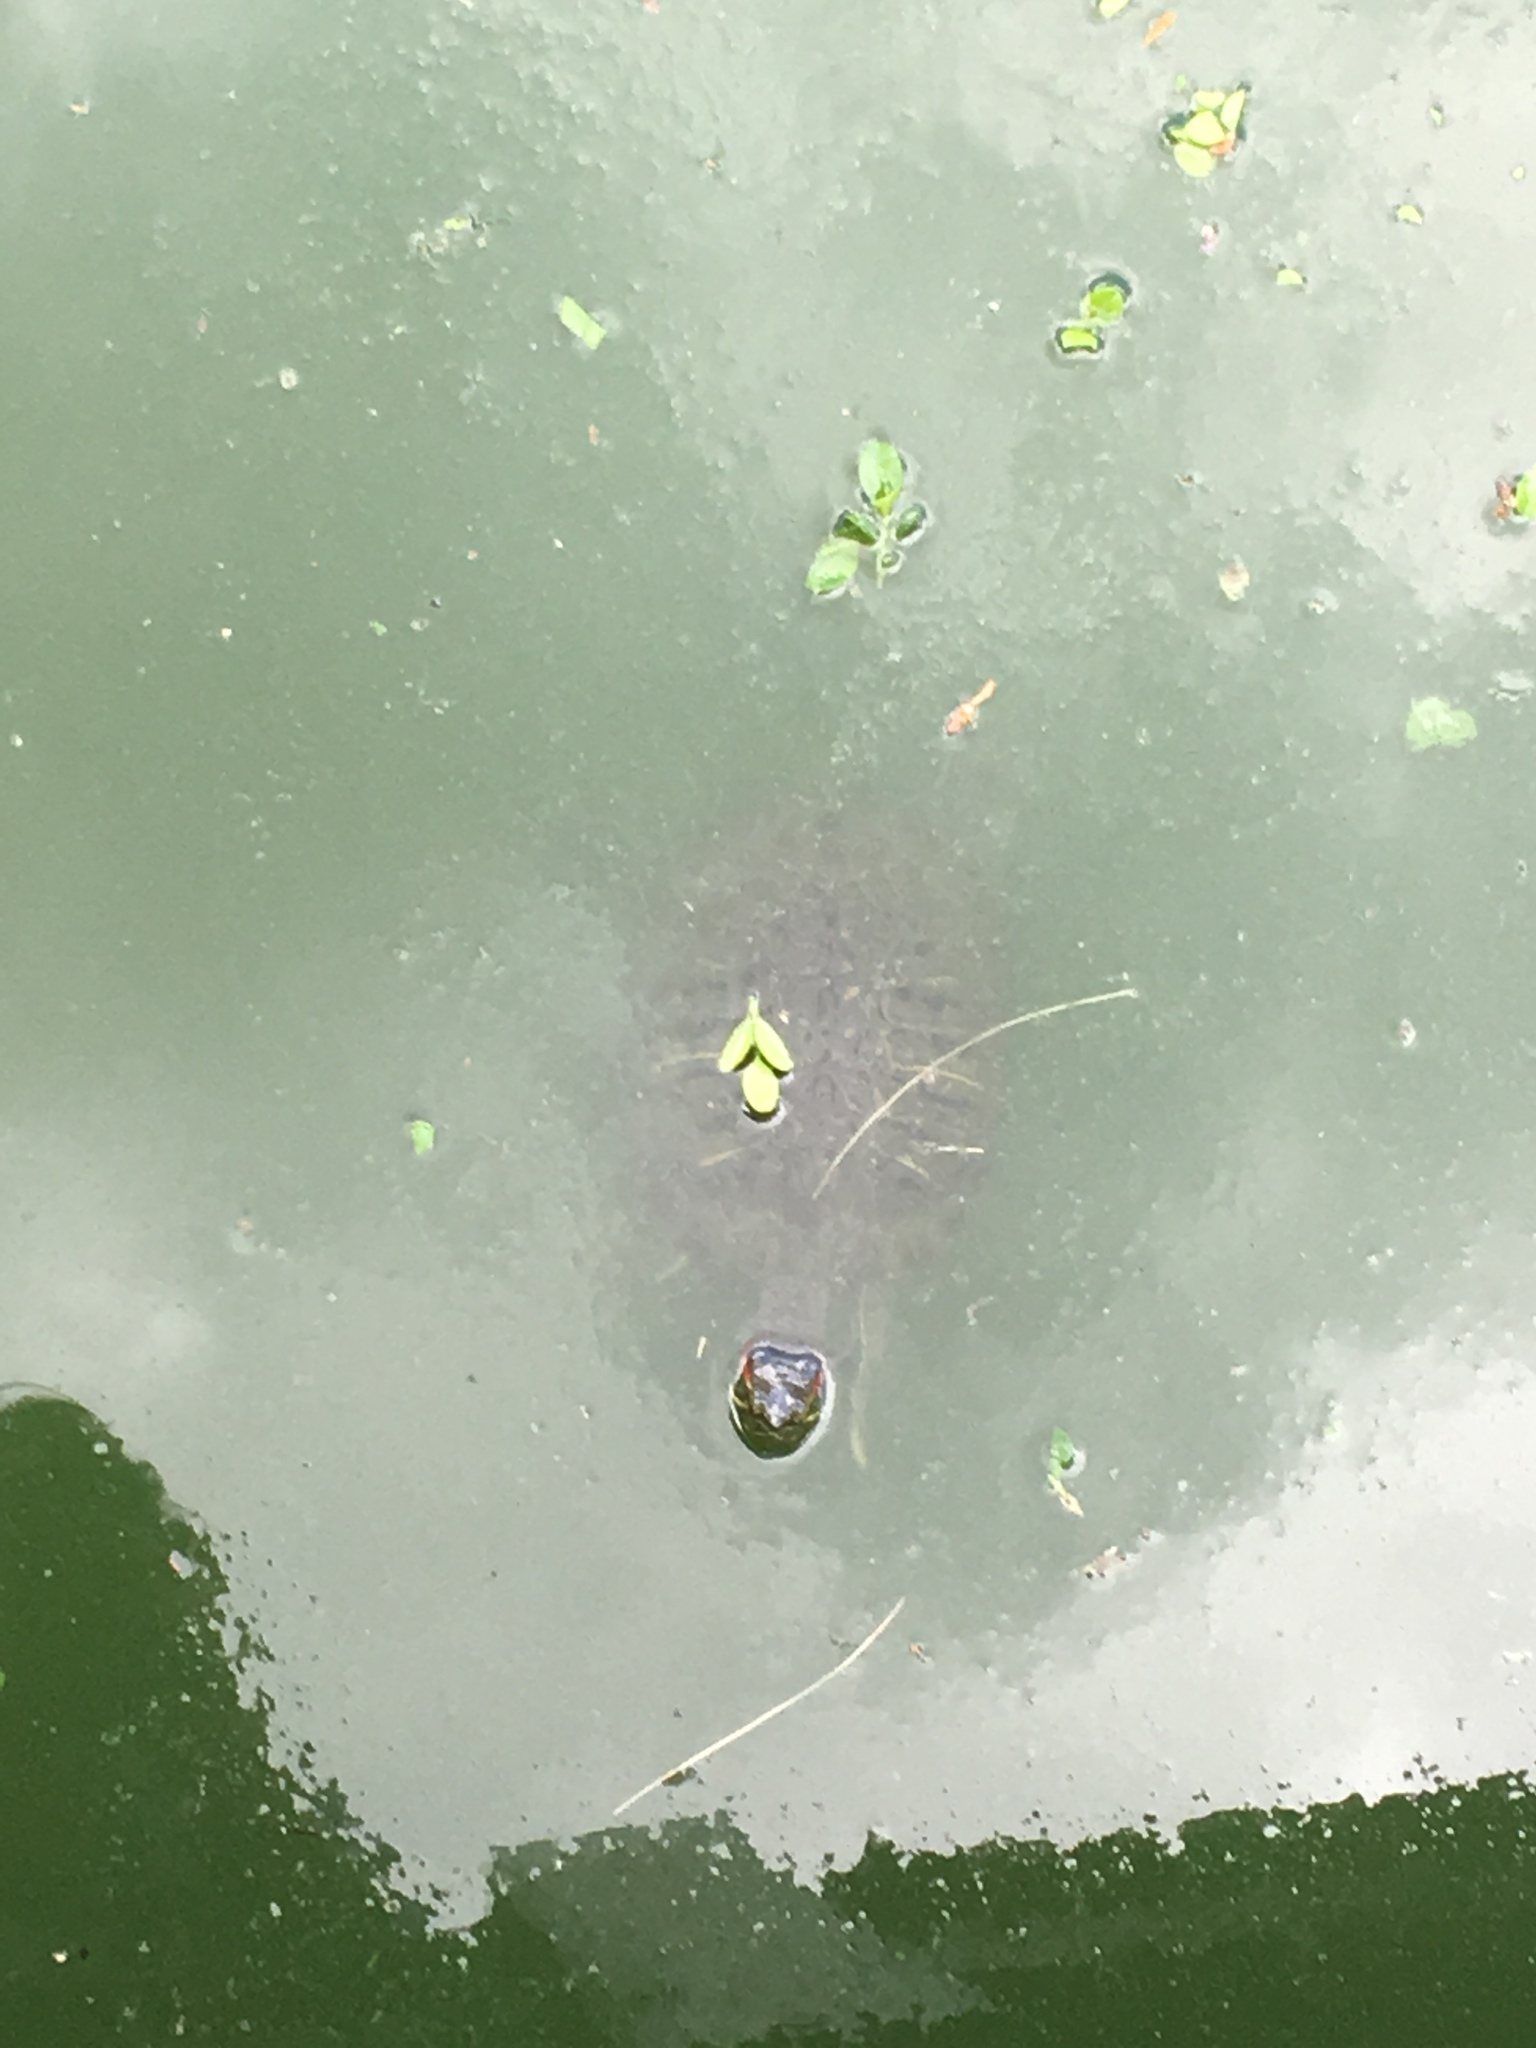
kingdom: Animalia
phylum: Chordata
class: Testudines
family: Emydidae
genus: Trachemys
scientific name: Trachemys scripta
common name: Slider
